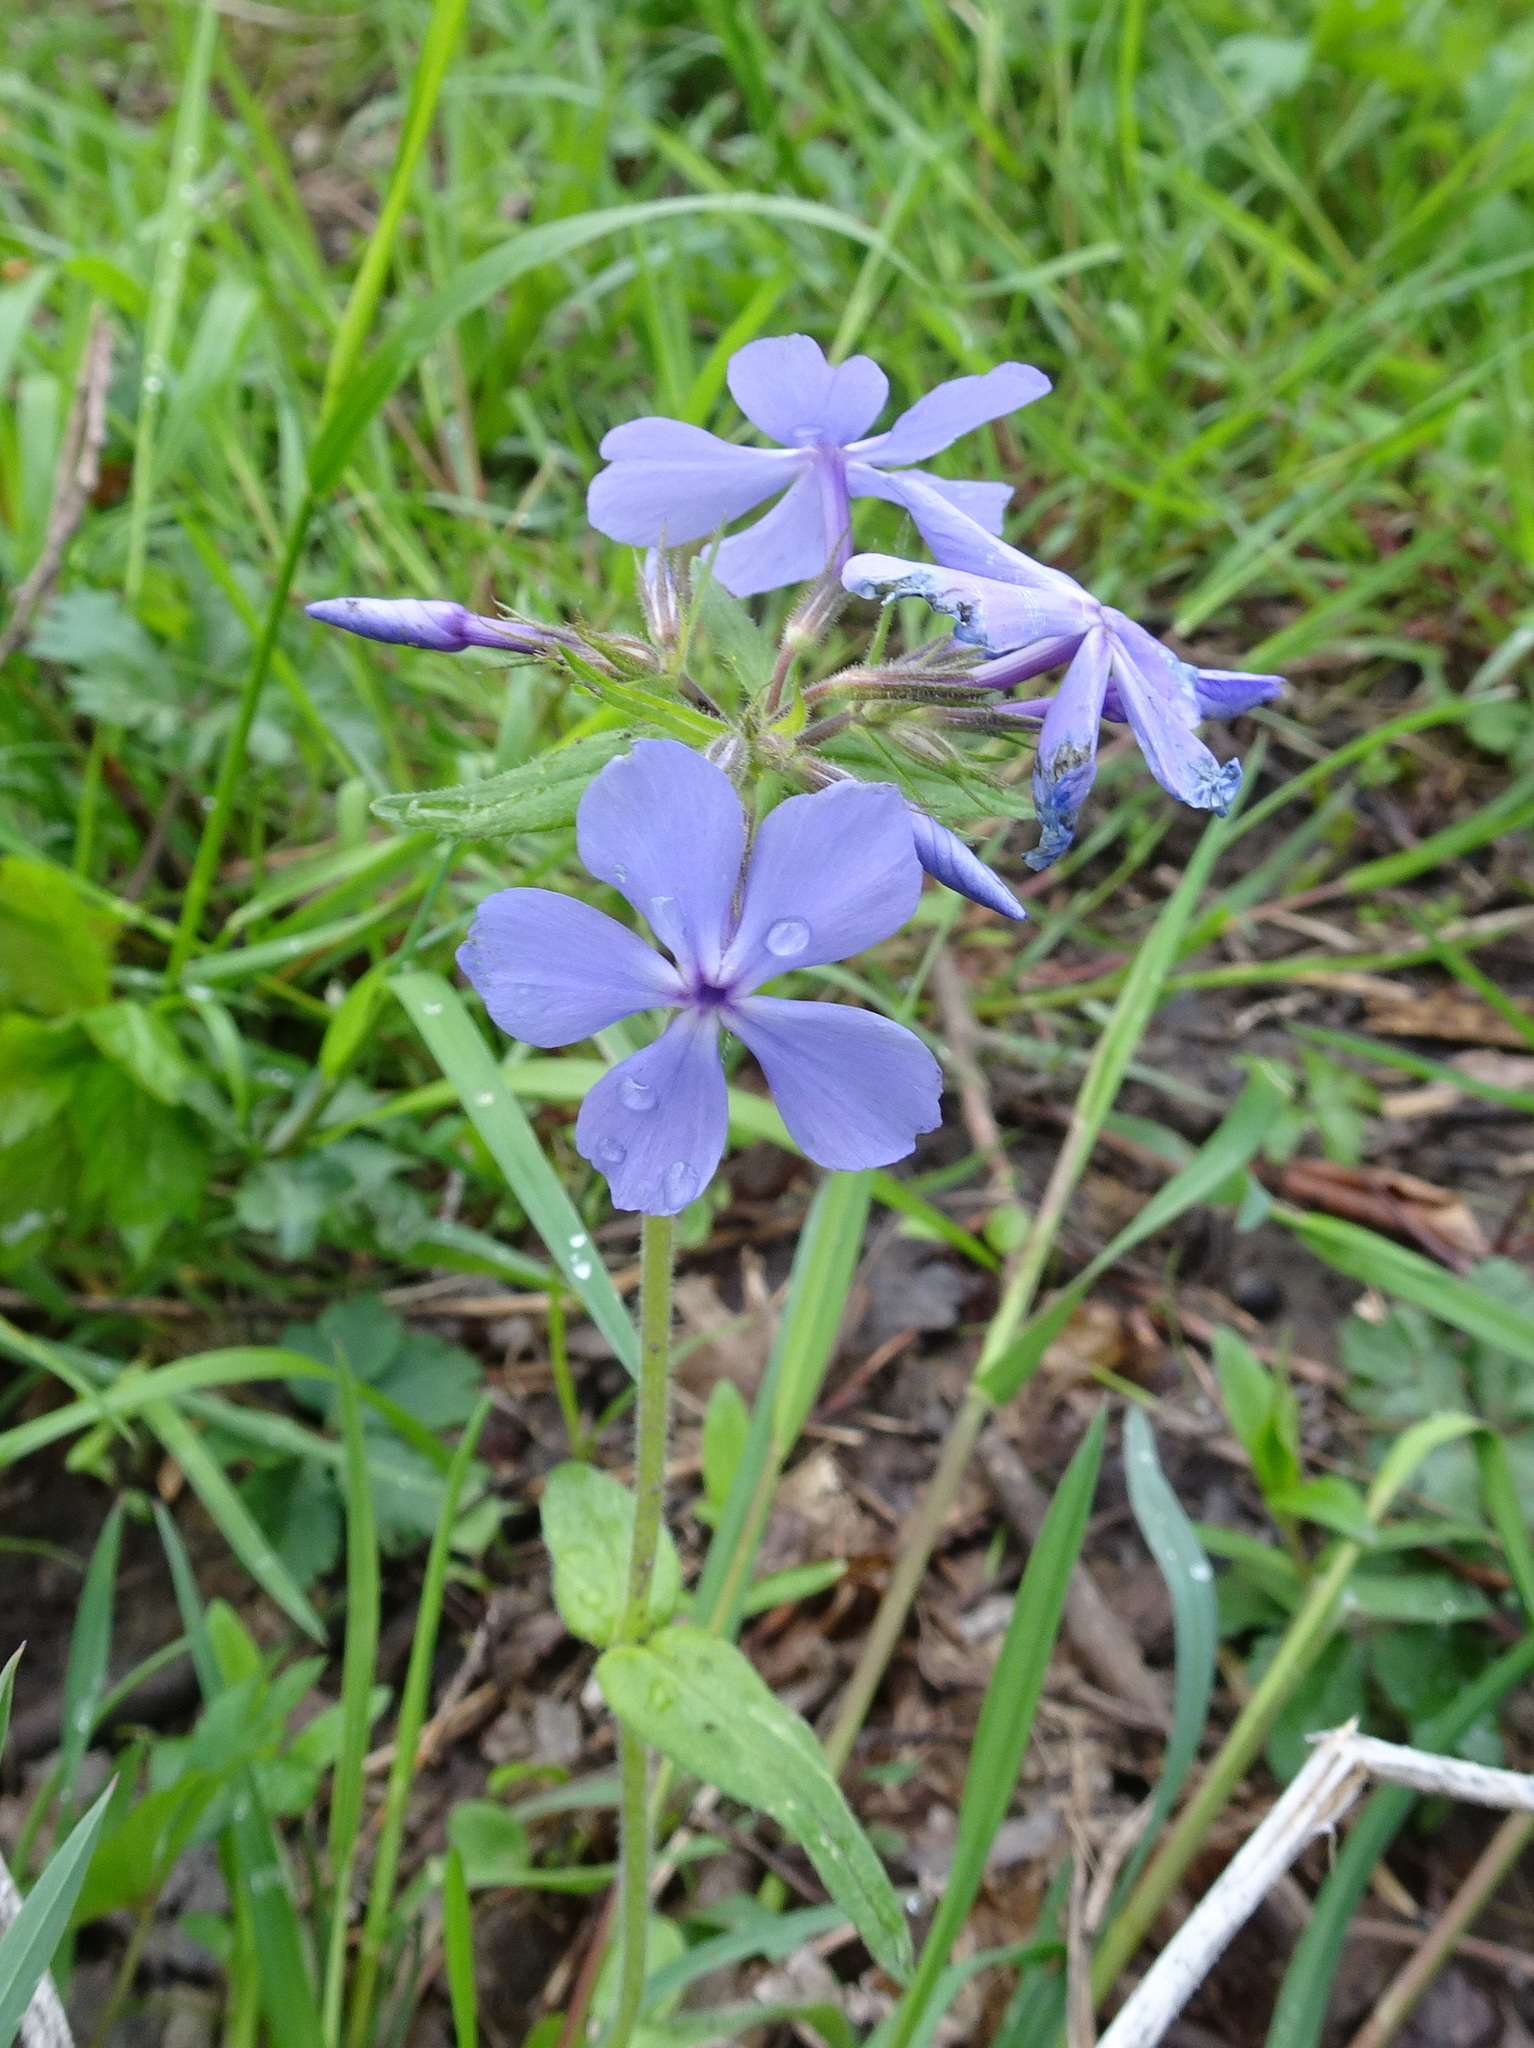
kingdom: Plantae
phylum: Tracheophyta
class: Magnoliopsida
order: Ericales
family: Polemoniaceae
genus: Phlox
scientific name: Phlox divaricata
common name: Blue phlox
